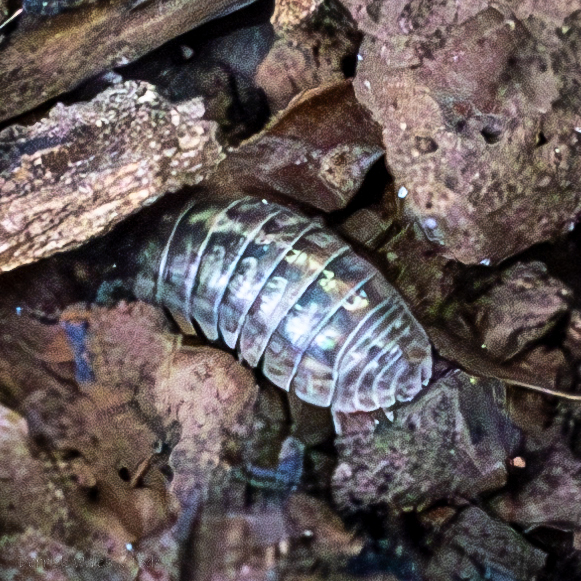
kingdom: Animalia
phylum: Arthropoda
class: Malacostraca
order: Isopoda
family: Armadillidiidae
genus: Armadillidium
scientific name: Armadillidium vulgare
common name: Common pill woodlouse
